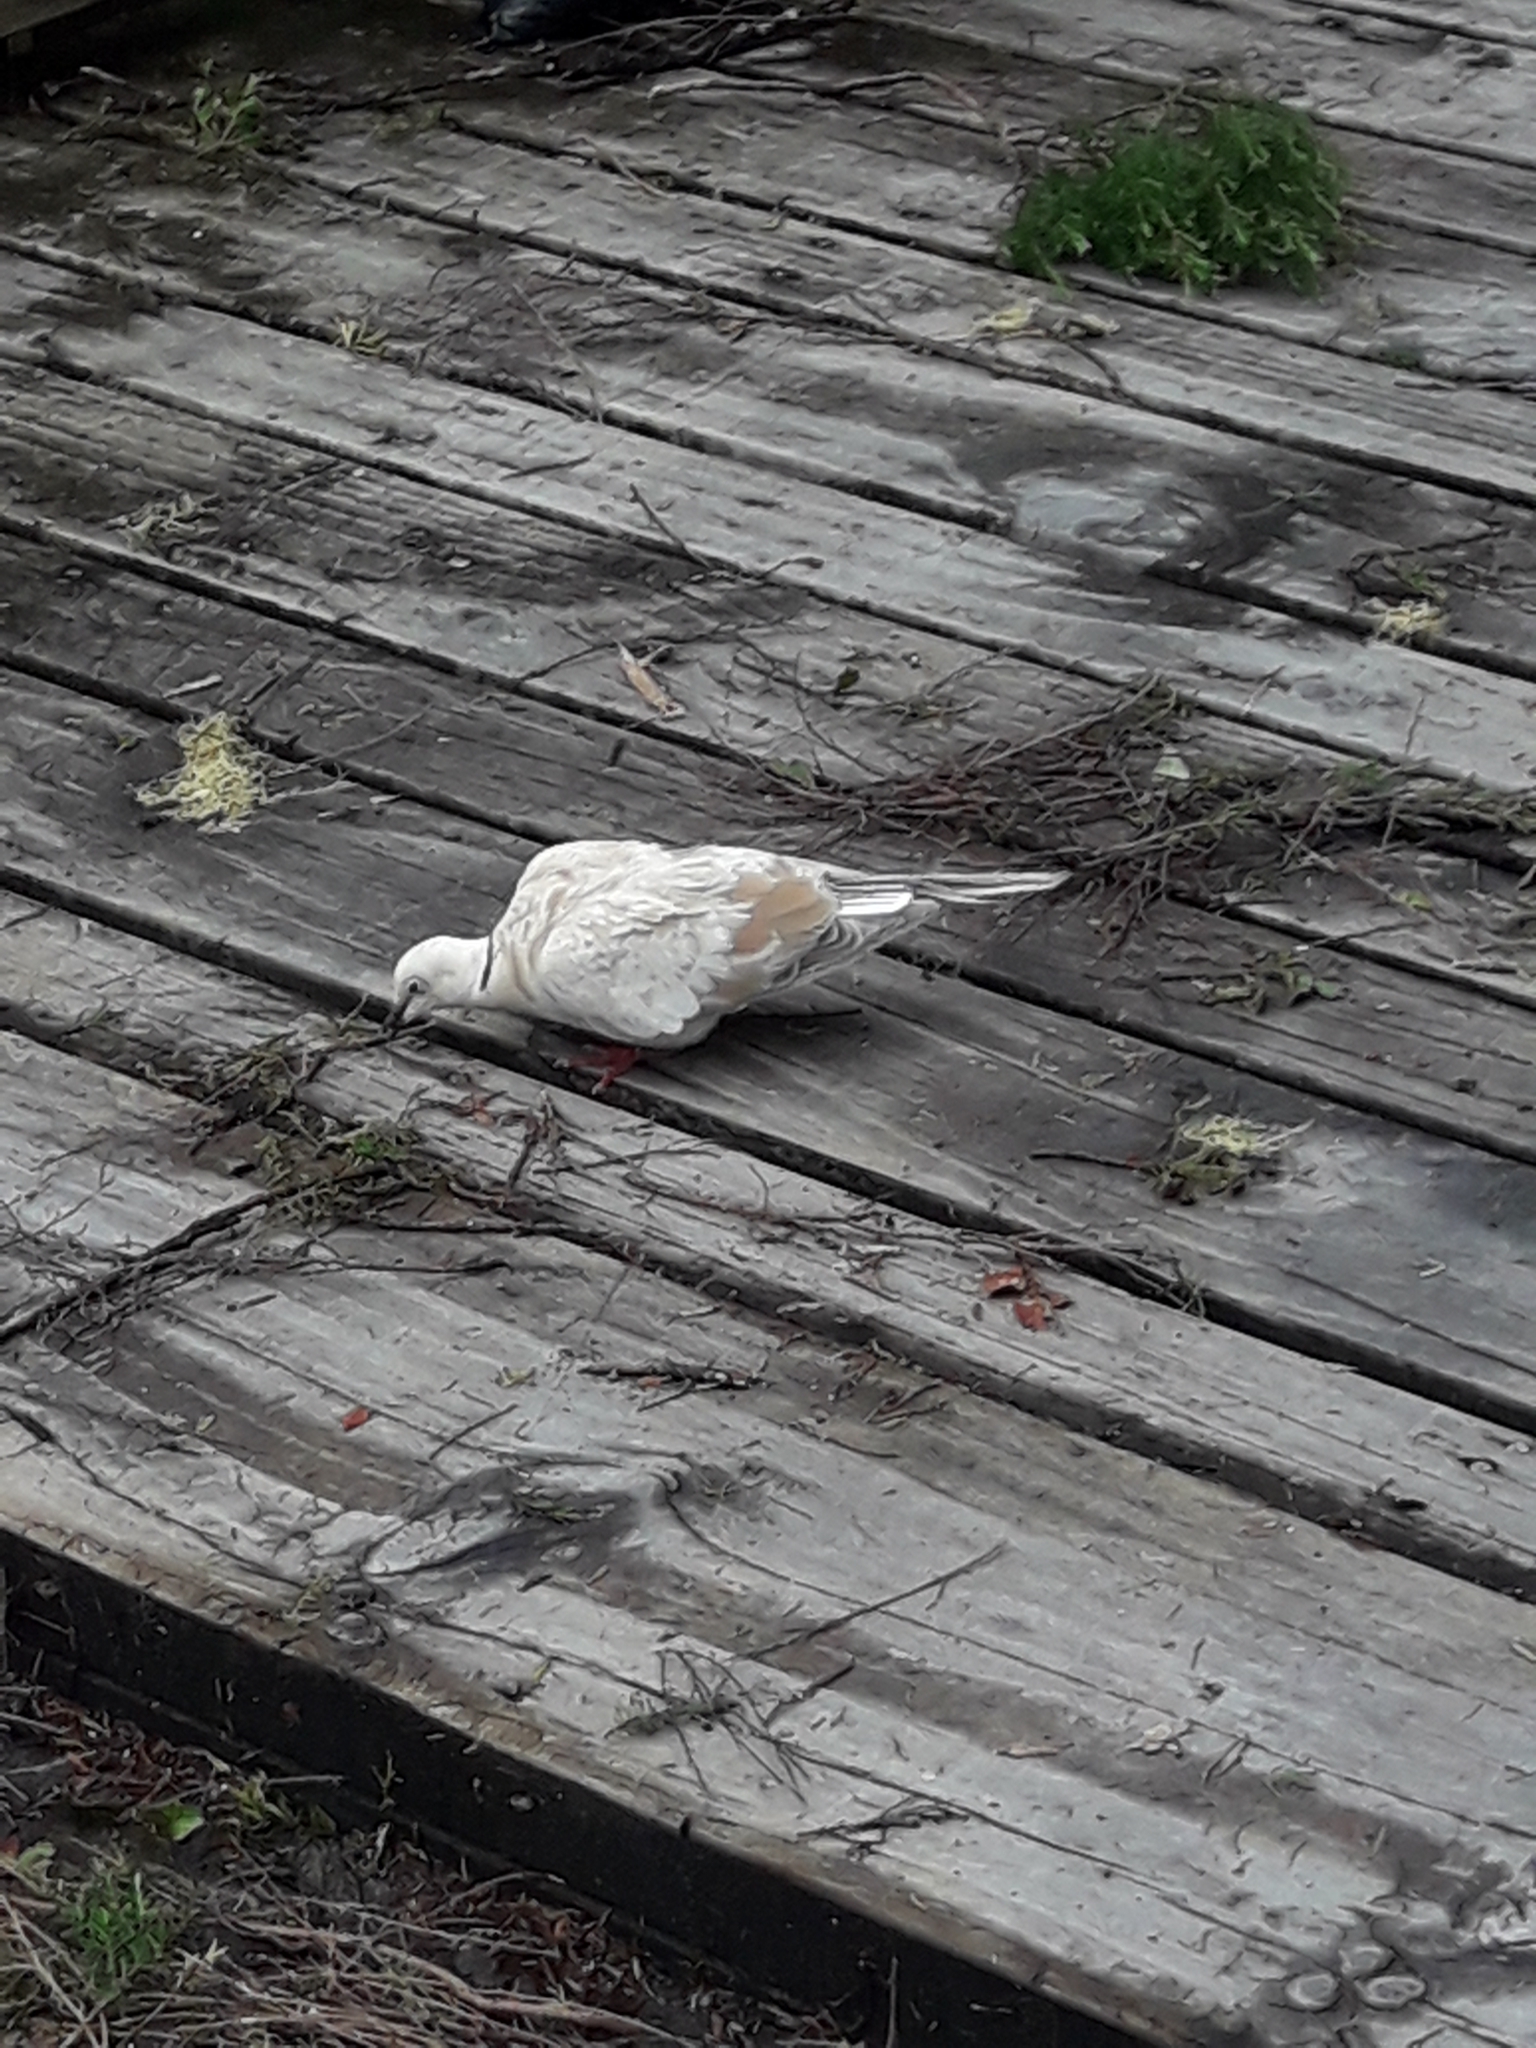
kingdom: Animalia
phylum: Chordata
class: Aves
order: Columbiformes
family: Columbidae
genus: Streptopelia
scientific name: Streptopelia roseogrisea
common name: African collared dove
